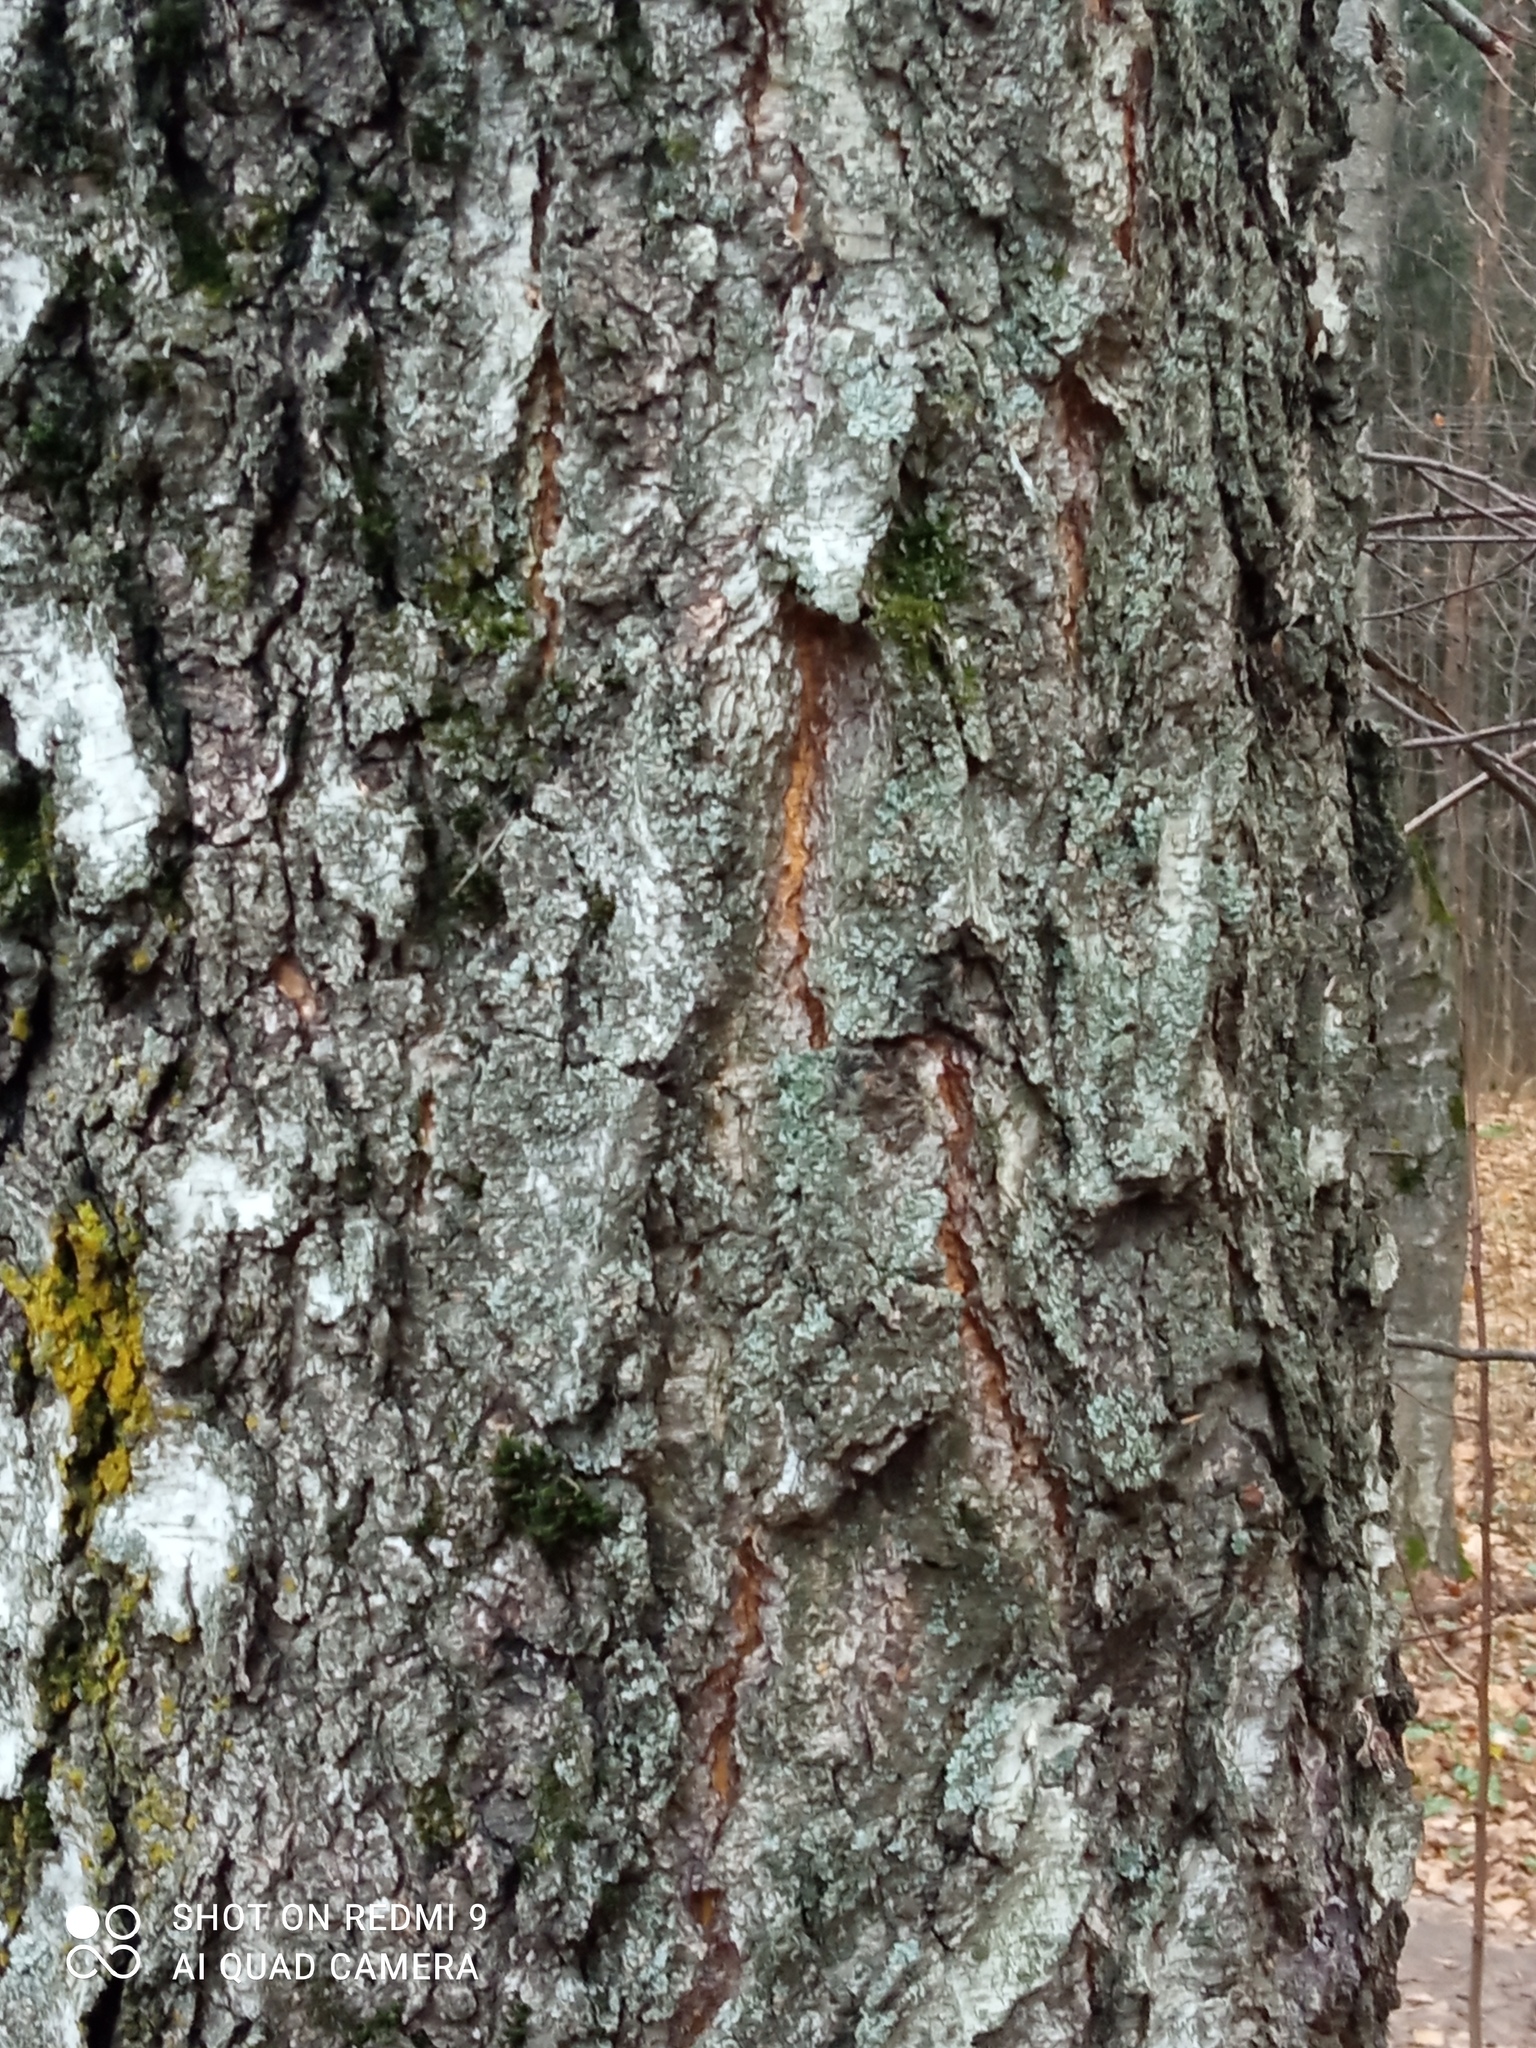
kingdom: Plantae
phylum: Tracheophyta
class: Magnoliopsida
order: Fagales
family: Betulaceae
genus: Betula
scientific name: Betula pendula
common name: Silver birch
